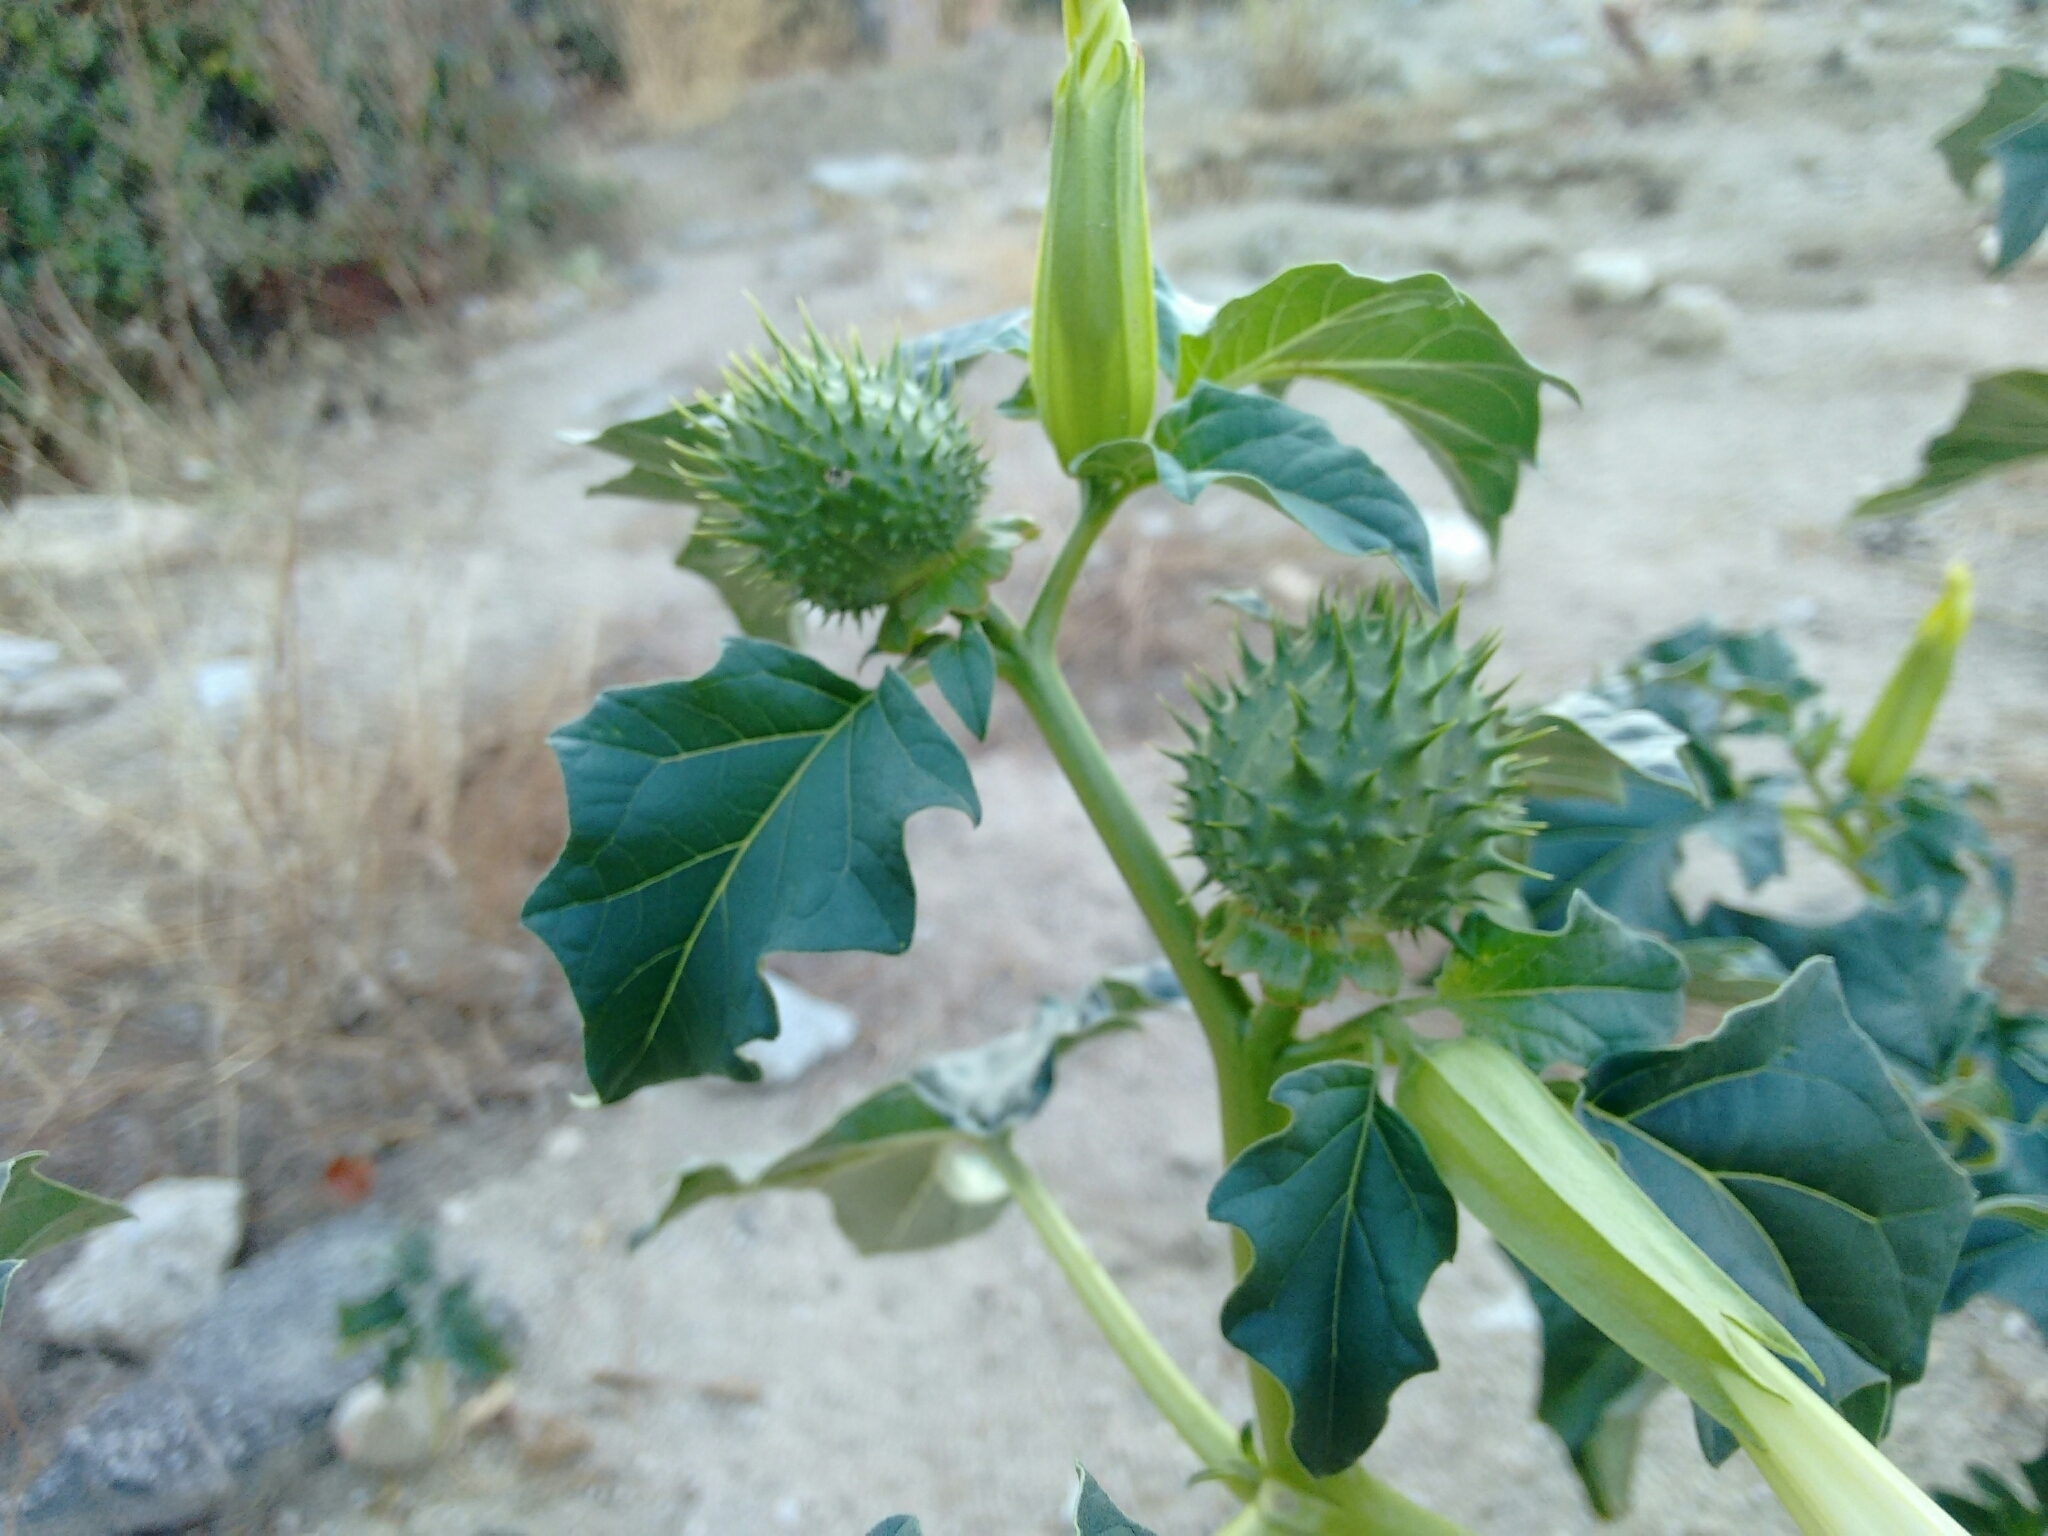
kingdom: Plantae
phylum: Tracheophyta
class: Magnoliopsida
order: Solanales
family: Solanaceae
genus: Datura
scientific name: Datura stramonium
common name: Thorn-apple
